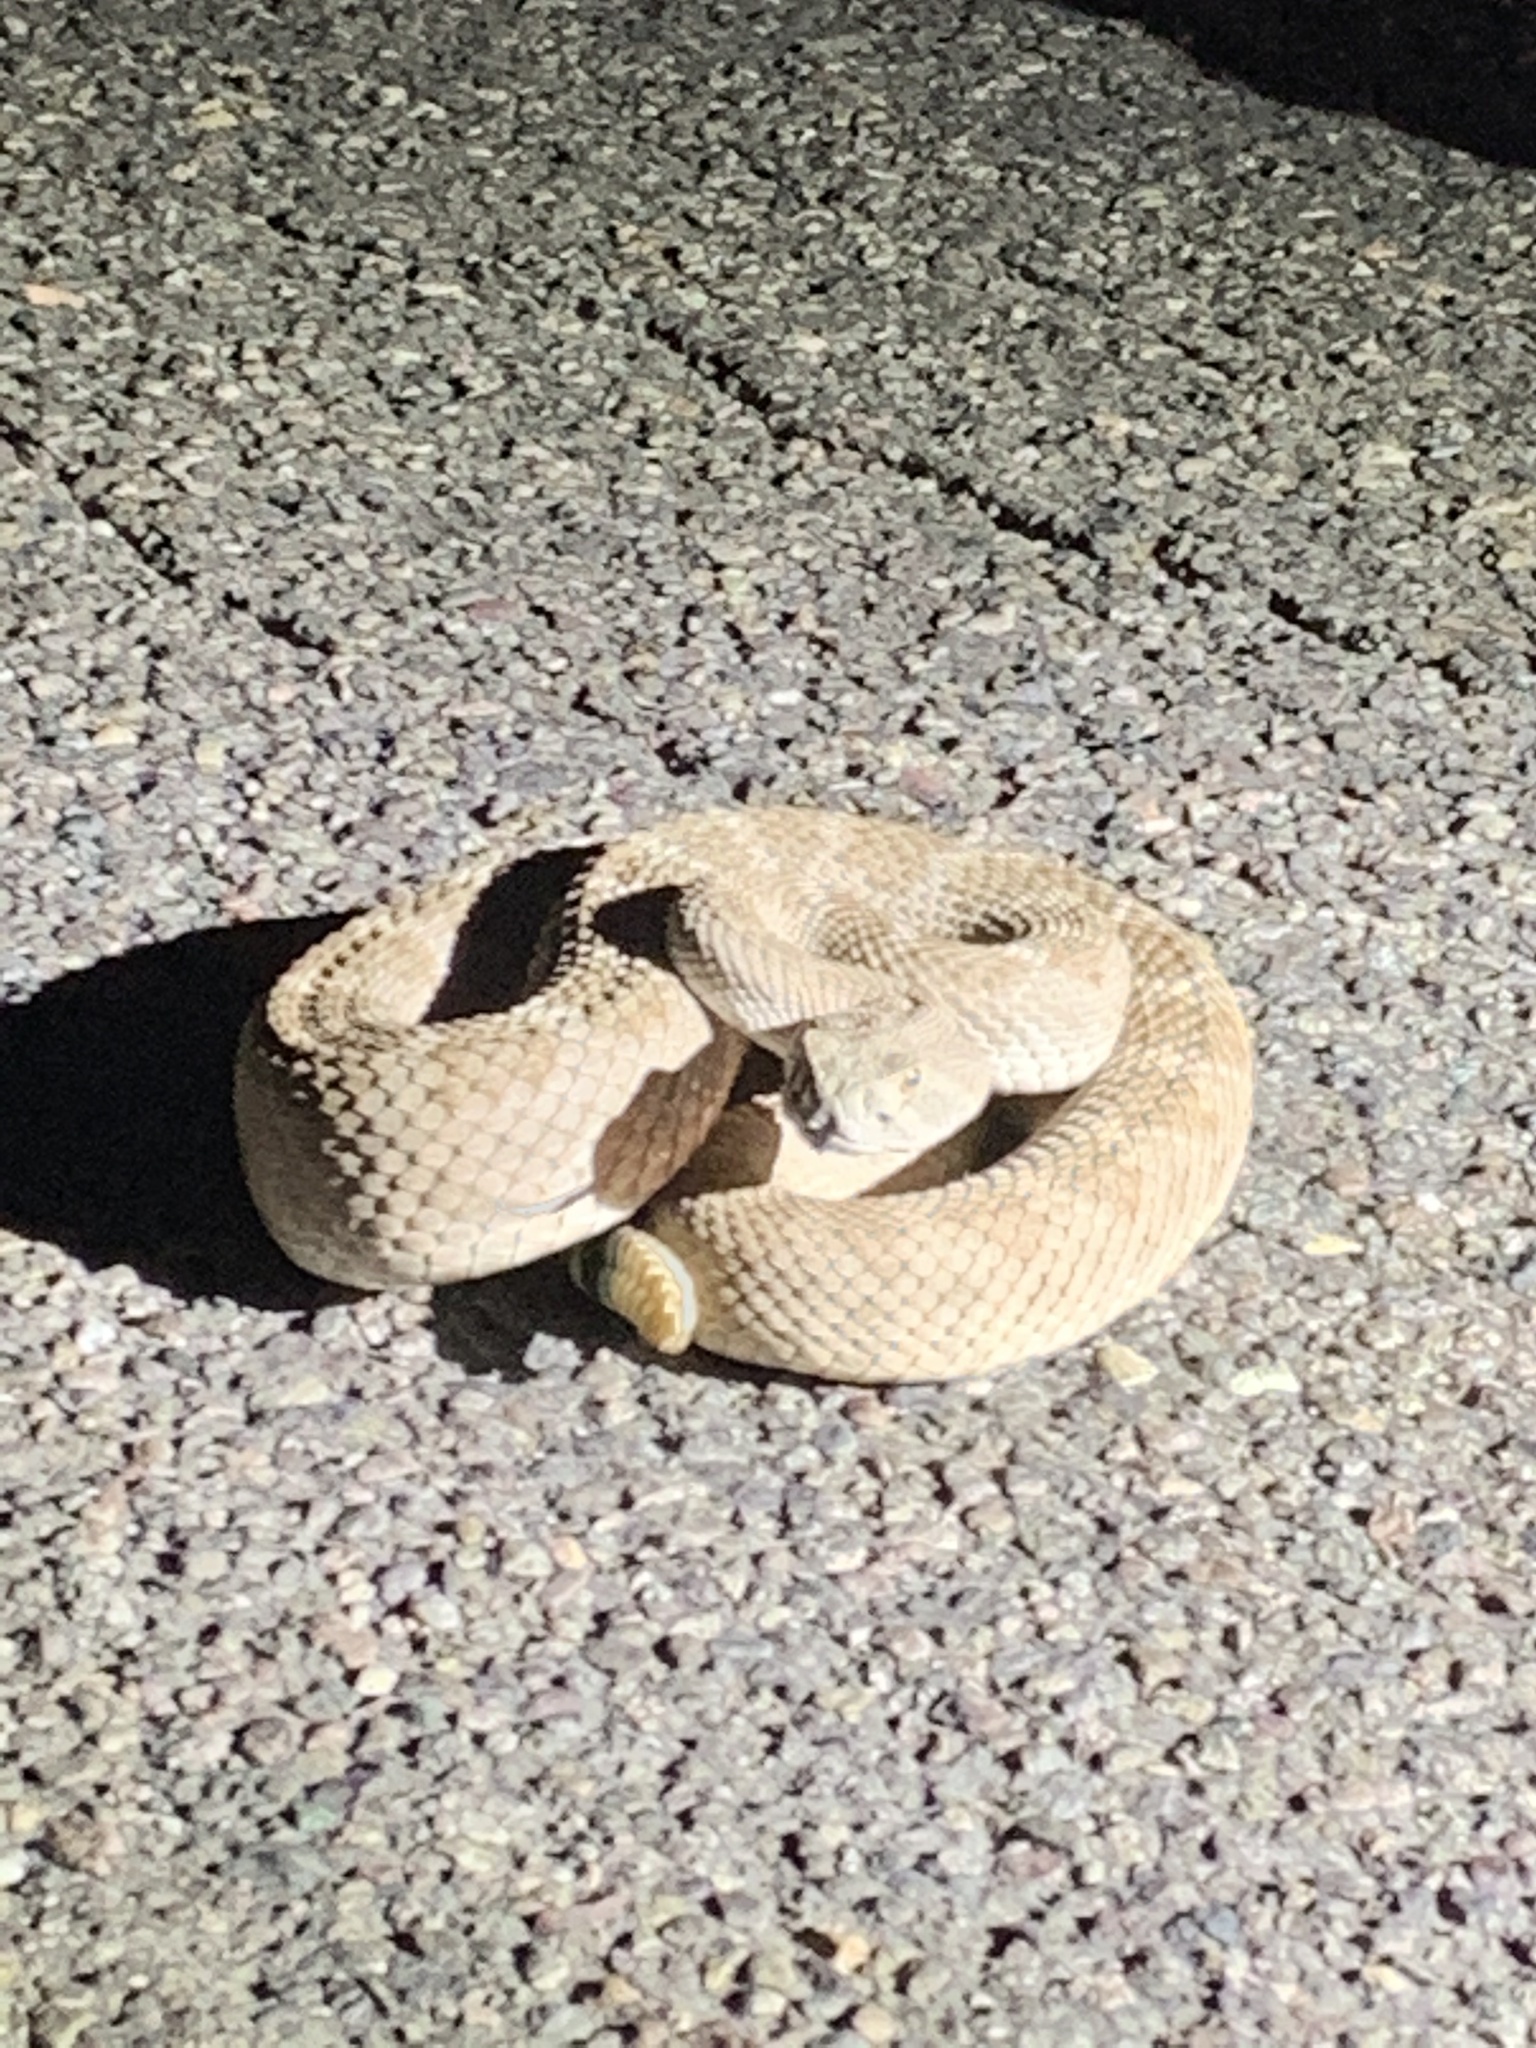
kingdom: Animalia
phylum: Chordata
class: Squamata
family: Viperidae
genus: Crotalus
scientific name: Crotalus atrox
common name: Western diamond-backed rattlesnake
